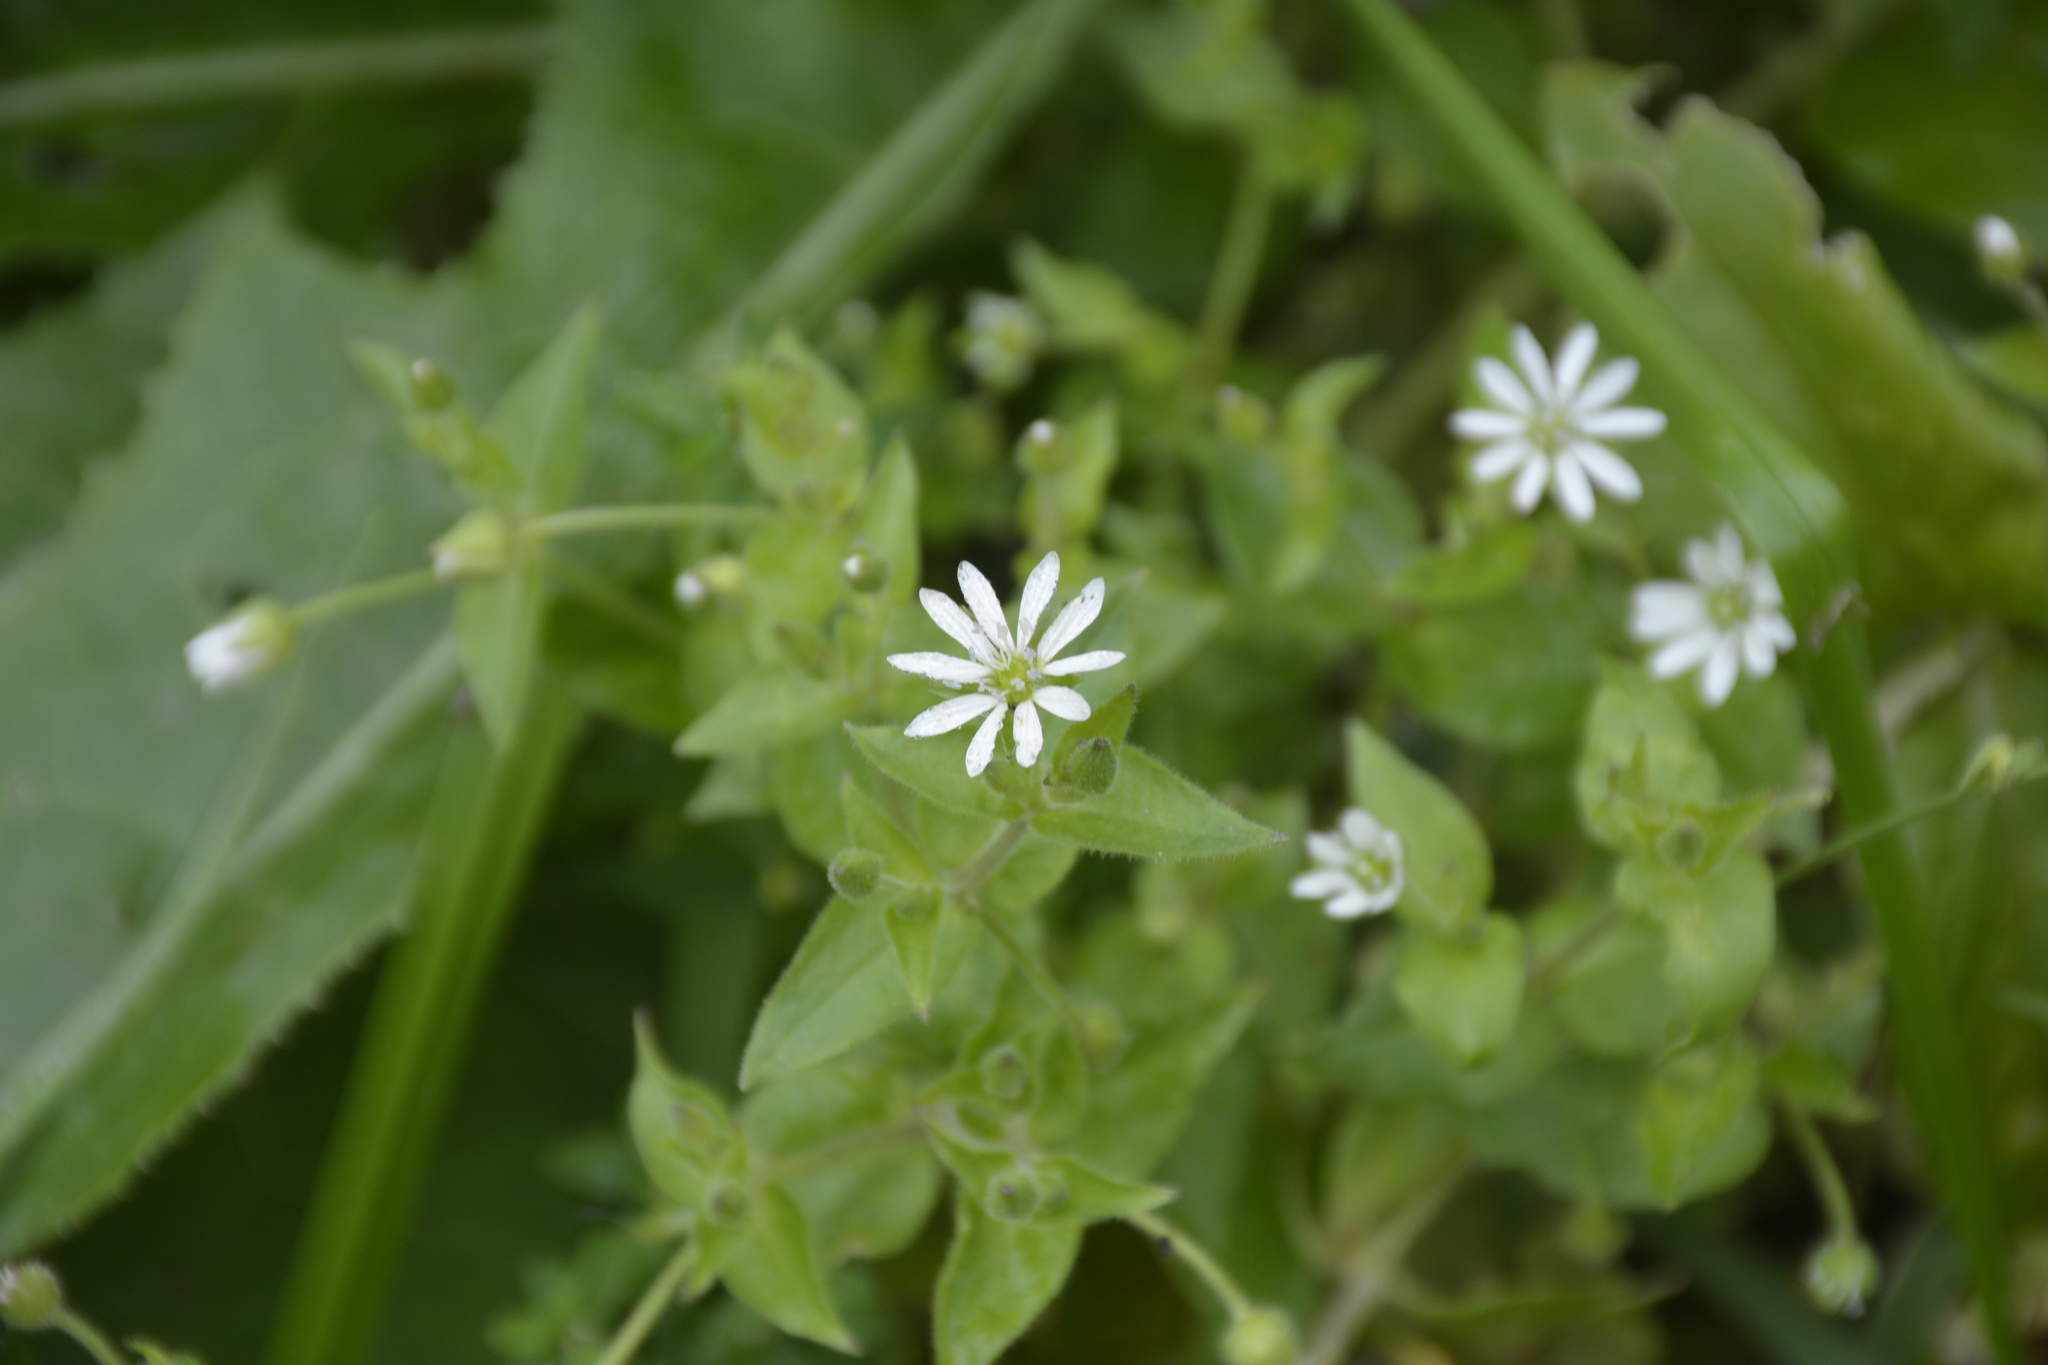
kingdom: Plantae
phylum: Tracheophyta
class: Magnoliopsida
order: Caryophyllales
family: Caryophyllaceae
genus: Stellaria
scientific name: Stellaria aquatica
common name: Water chickweed
